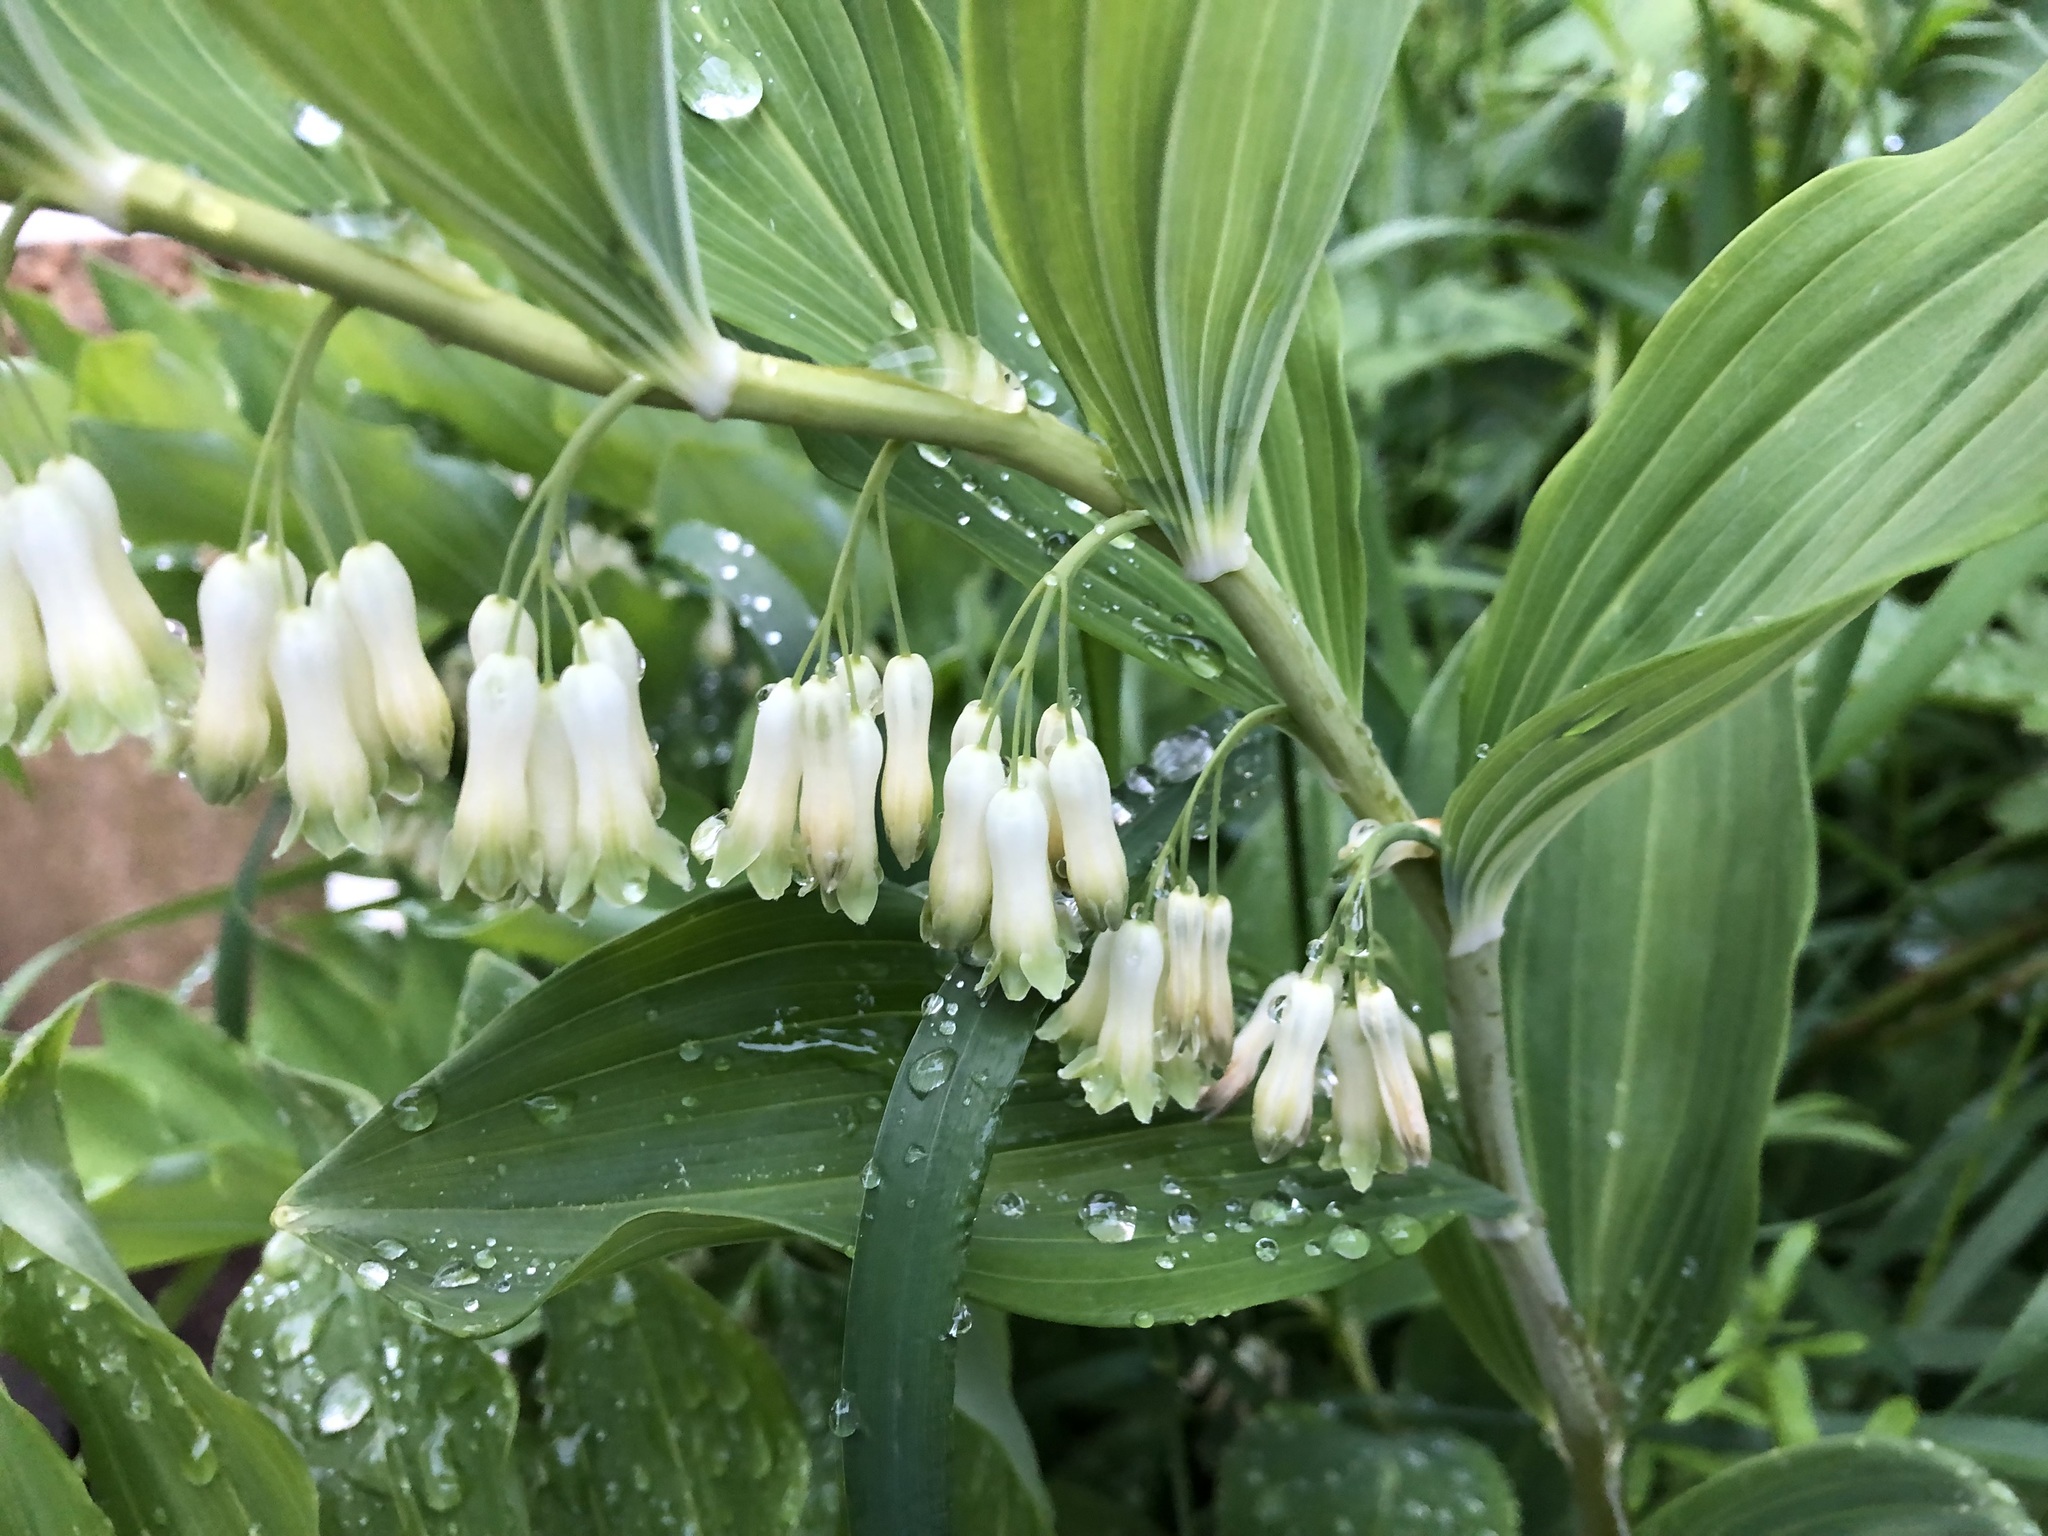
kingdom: Plantae
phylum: Tracheophyta
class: Liliopsida
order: Asparagales
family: Asparagaceae
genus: Polygonatum
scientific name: Polygonatum multiflorum
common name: Solomon's-seal
